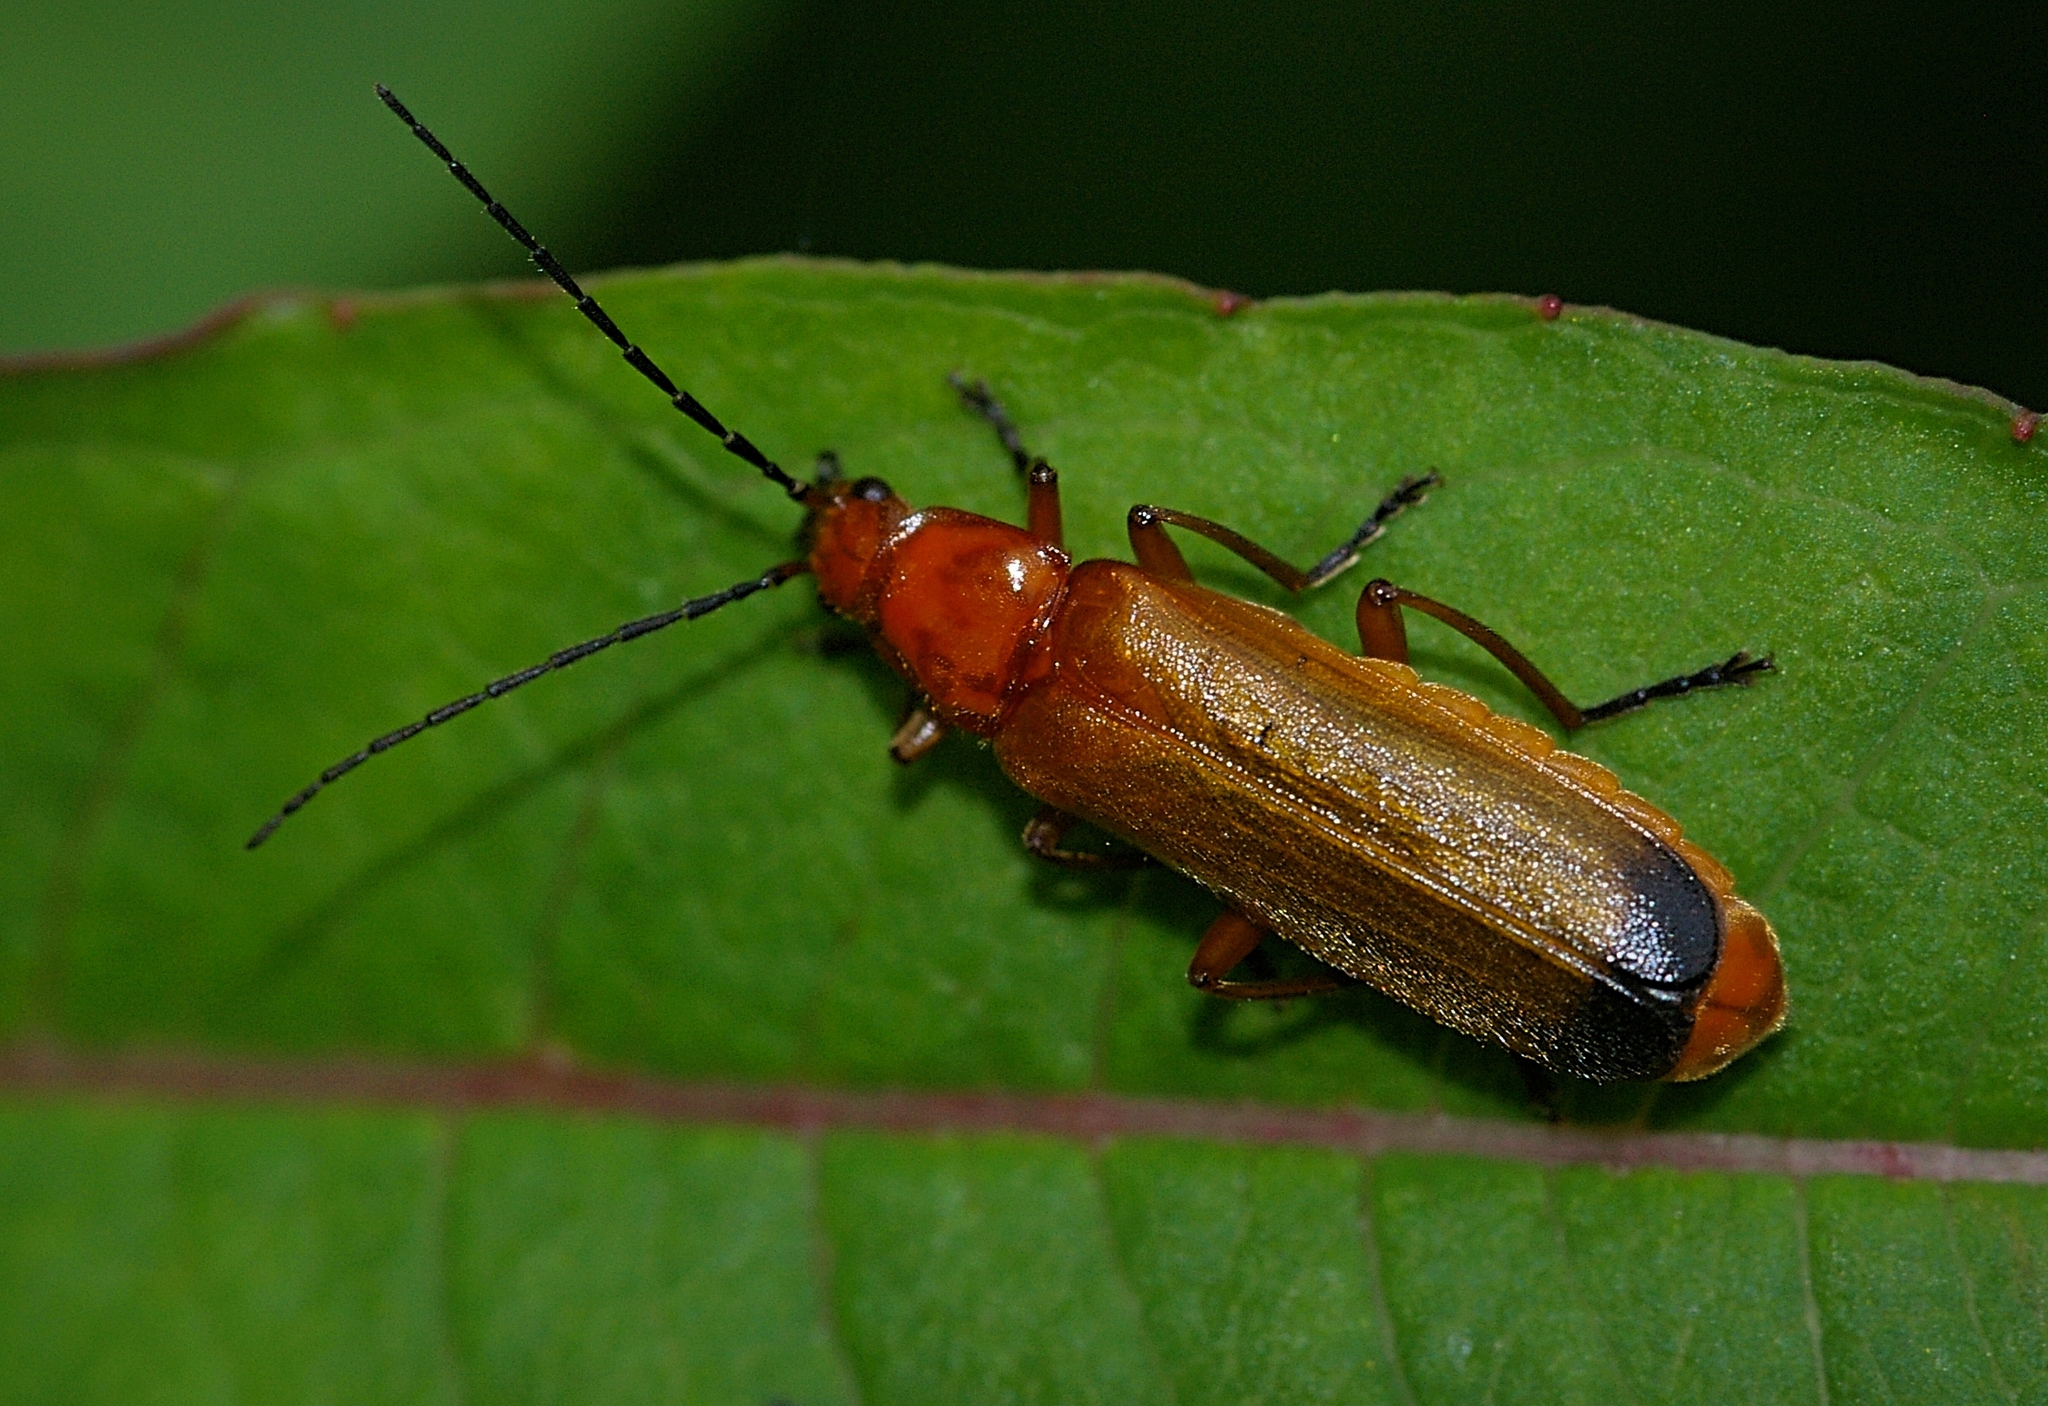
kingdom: Animalia
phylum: Arthropoda
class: Insecta
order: Coleoptera
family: Cantharidae
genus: Rhagonycha
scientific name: Rhagonycha fulva
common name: Common red soldier beetle
